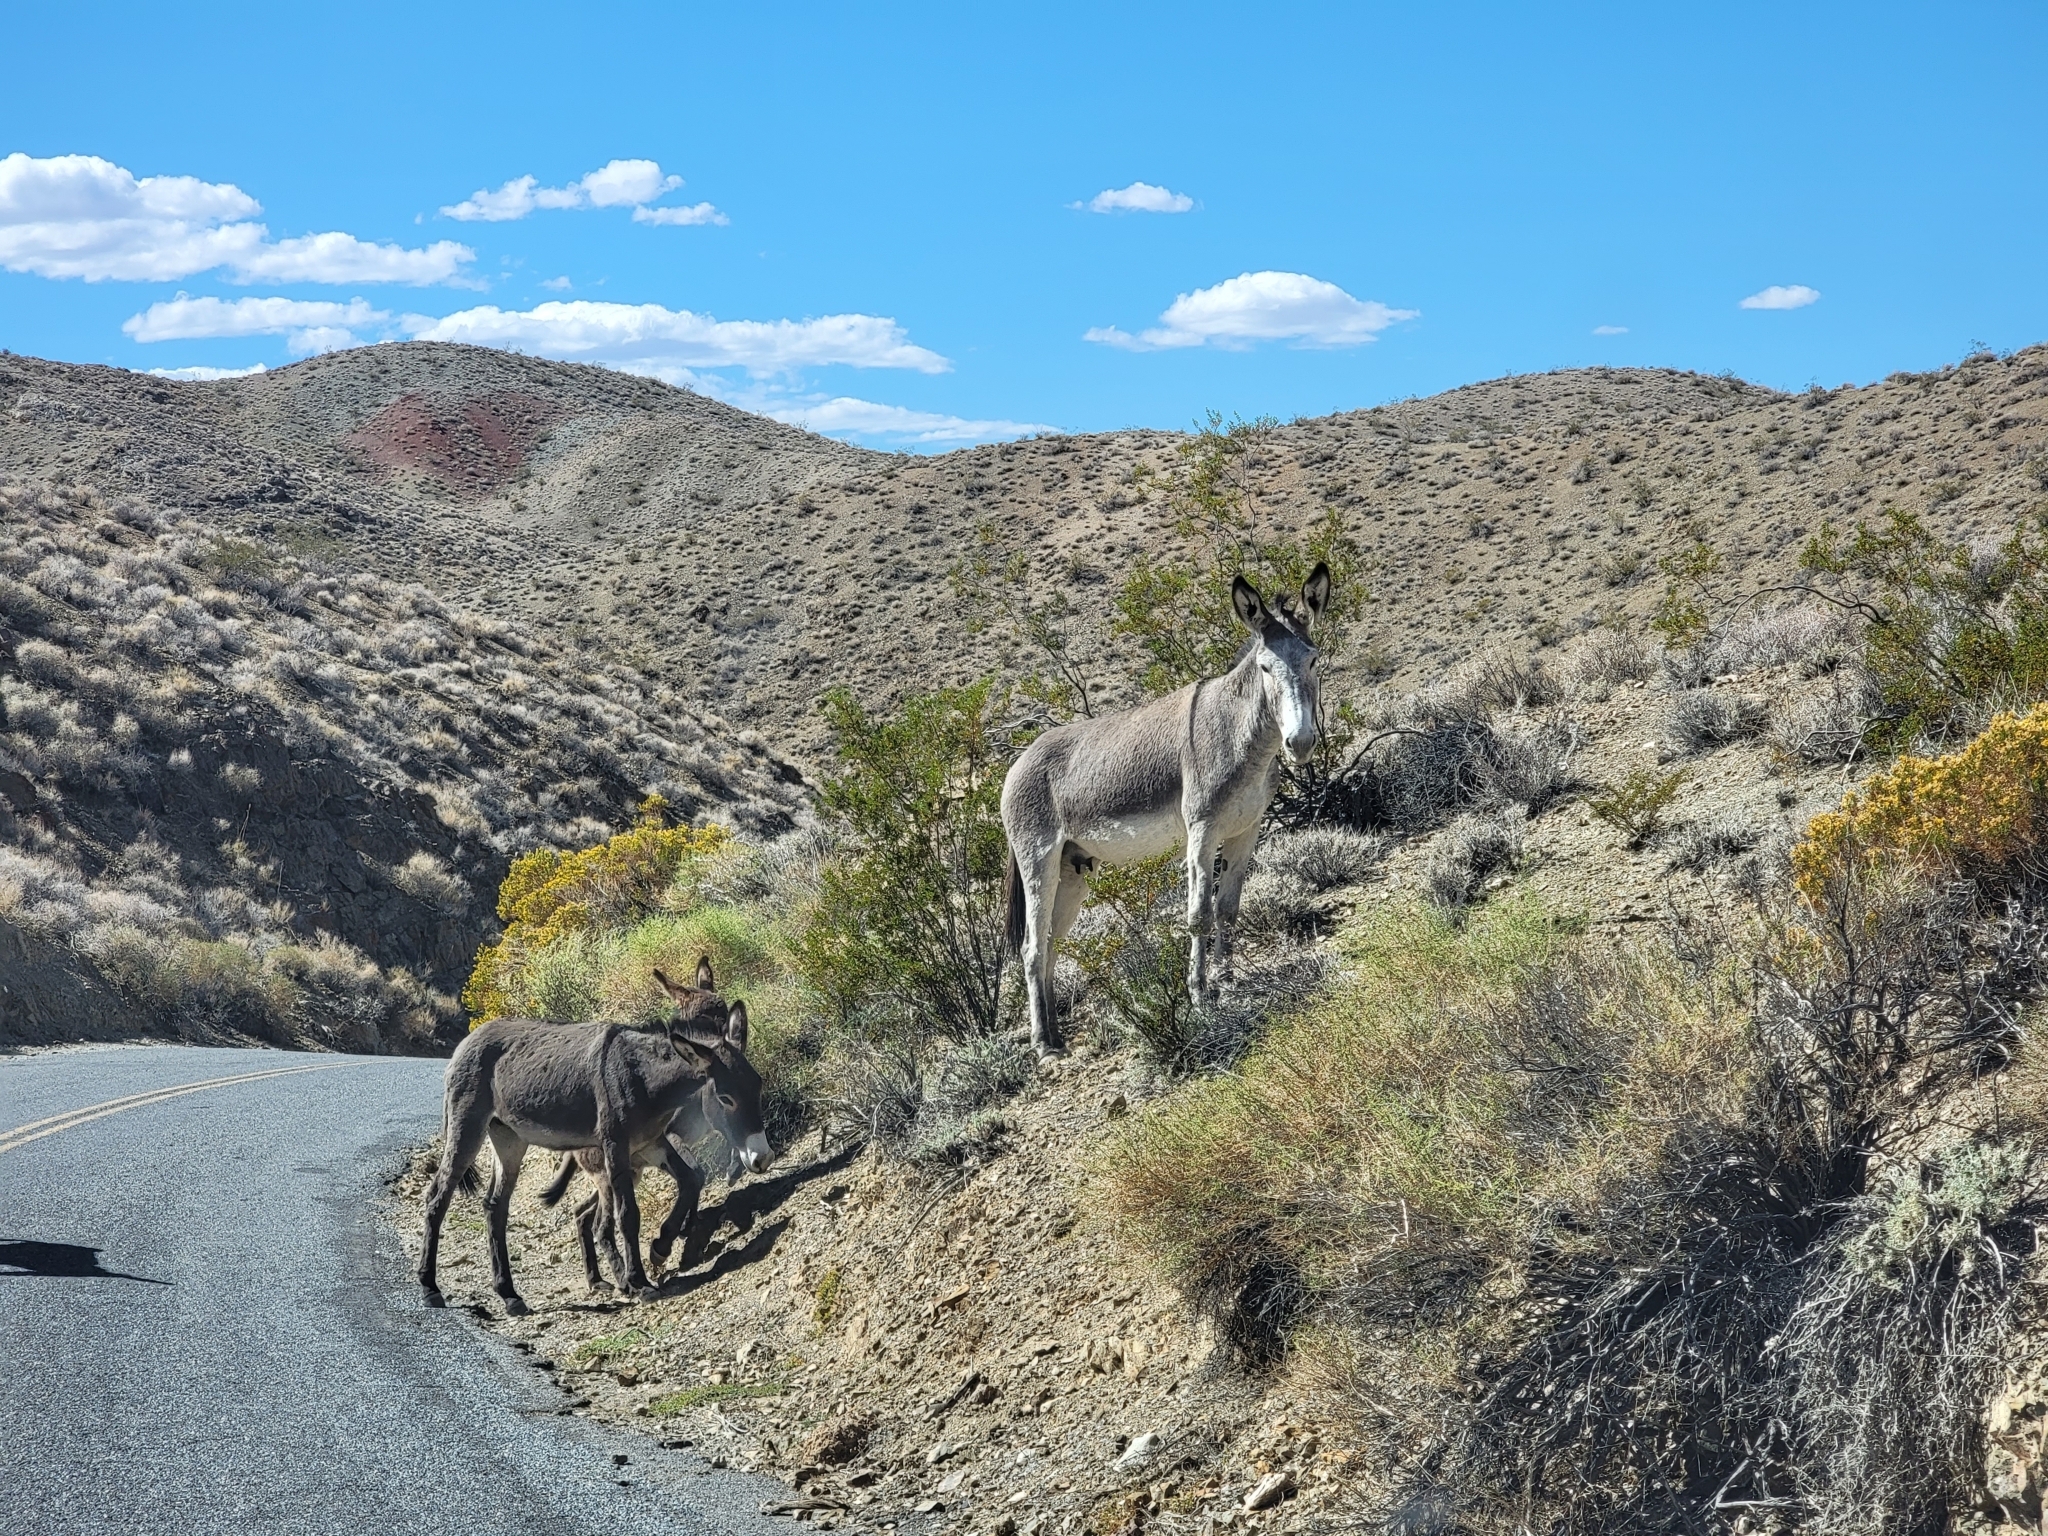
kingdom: Animalia
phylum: Chordata
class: Mammalia
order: Perissodactyla
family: Equidae
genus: Equus
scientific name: Equus asinus
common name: Ass
